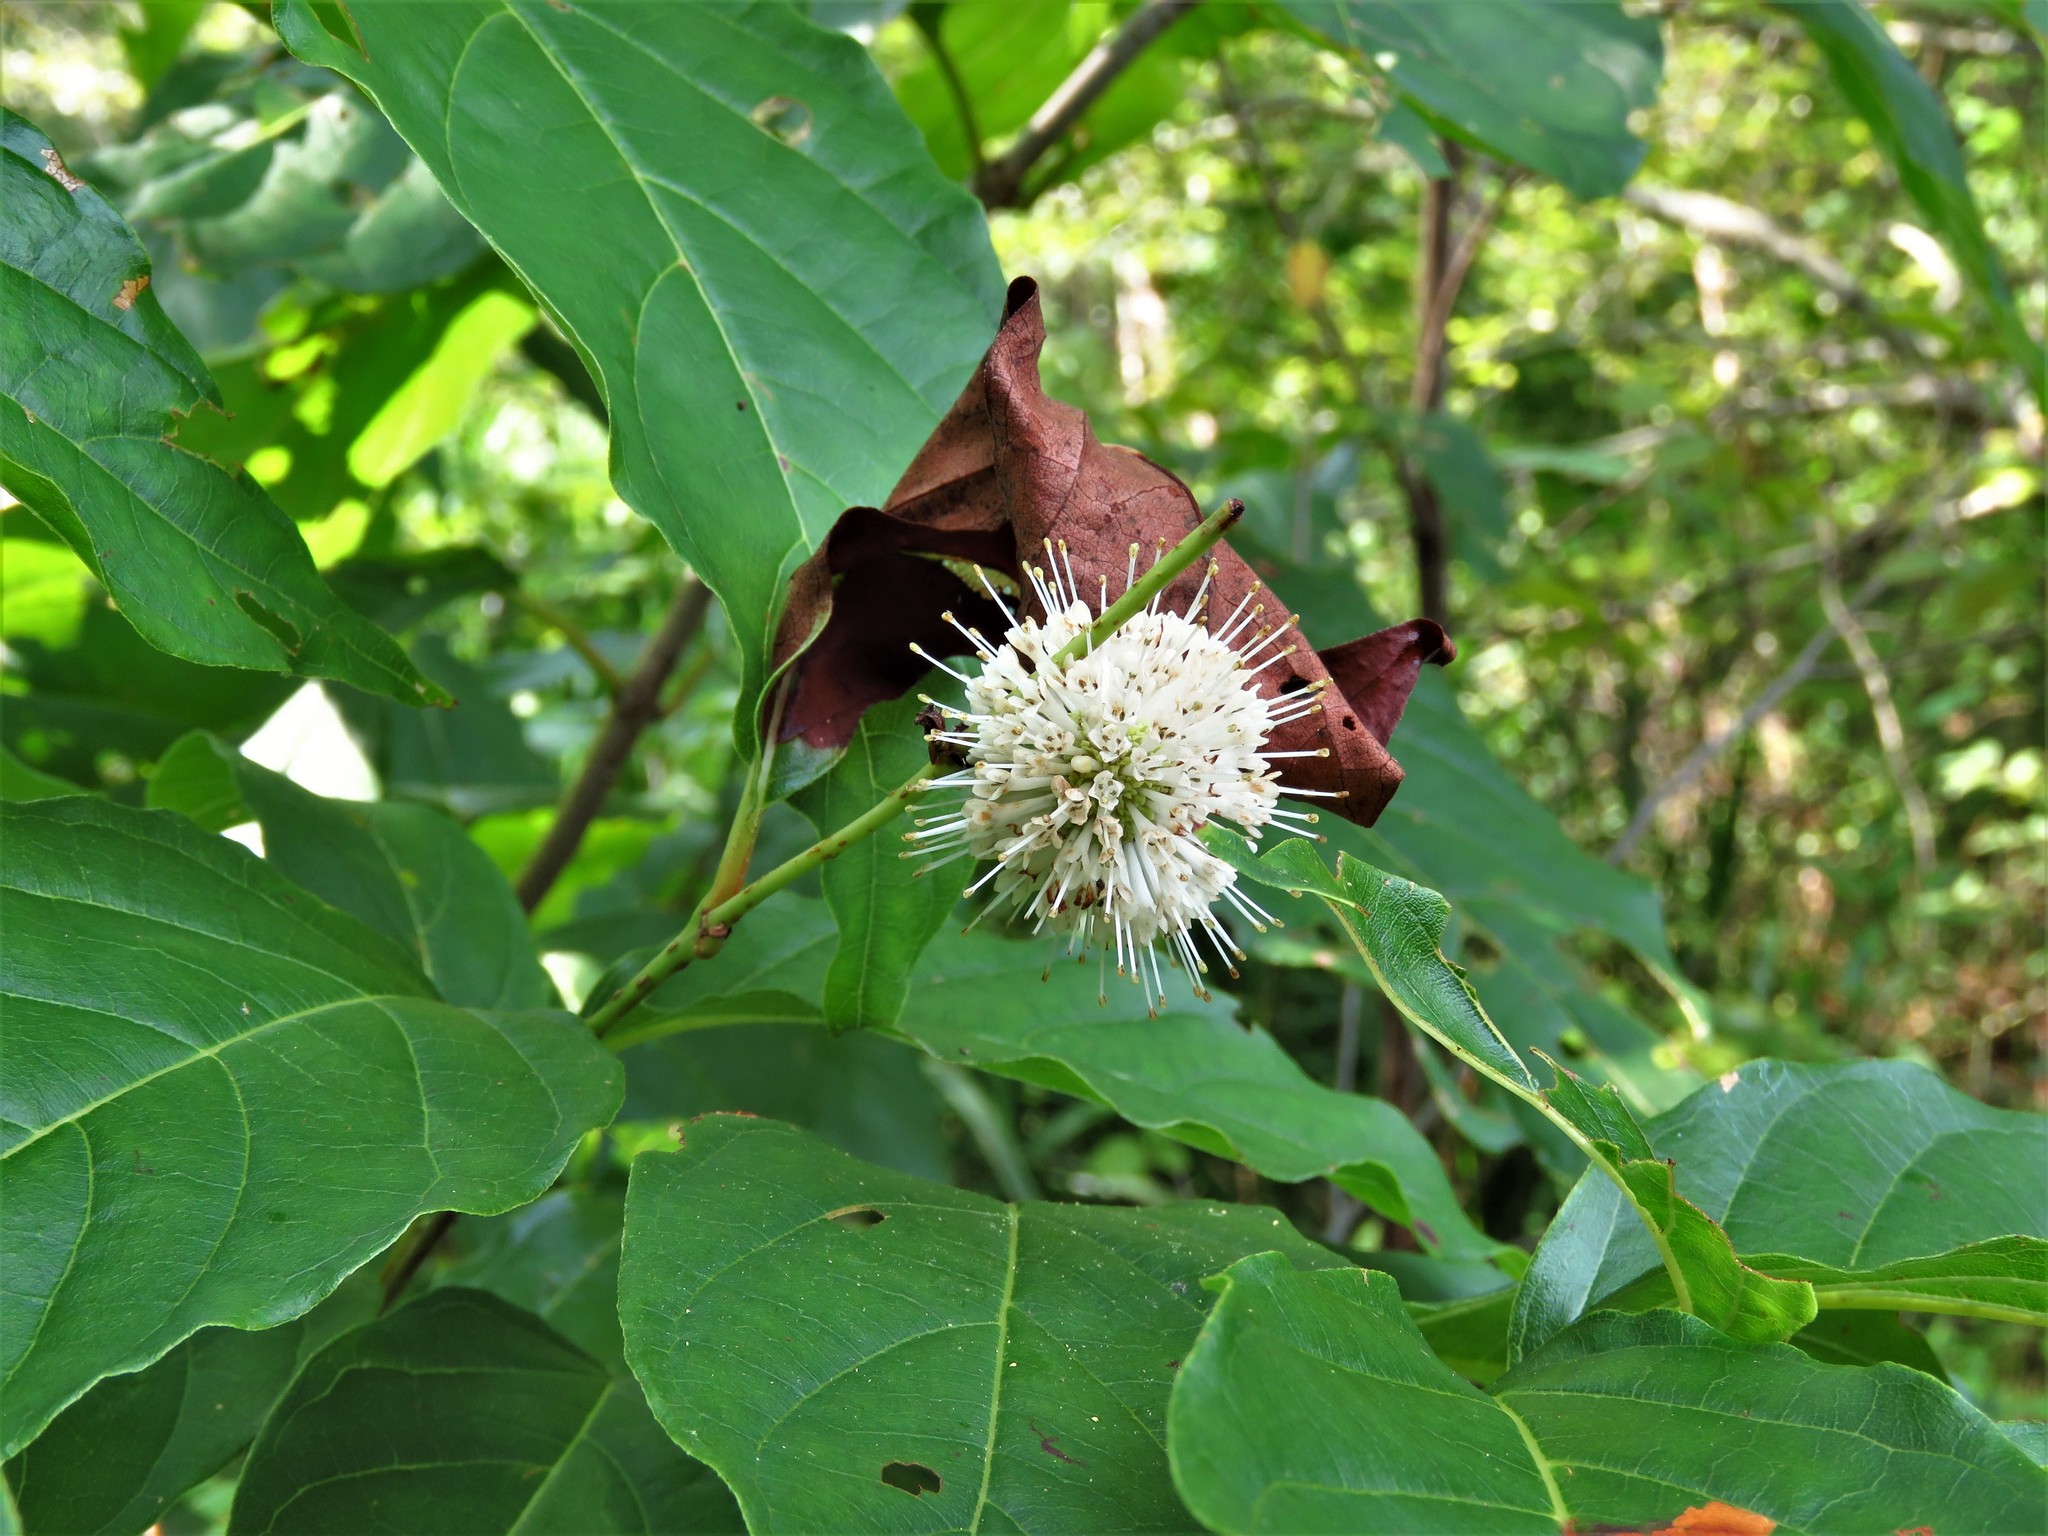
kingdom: Plantae
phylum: Tracheophyta
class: Magnoliopsida
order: Gentianales
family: Rubiaceae
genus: Cephalanthus
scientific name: Cephalanthus occidentalis
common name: Button-willow
